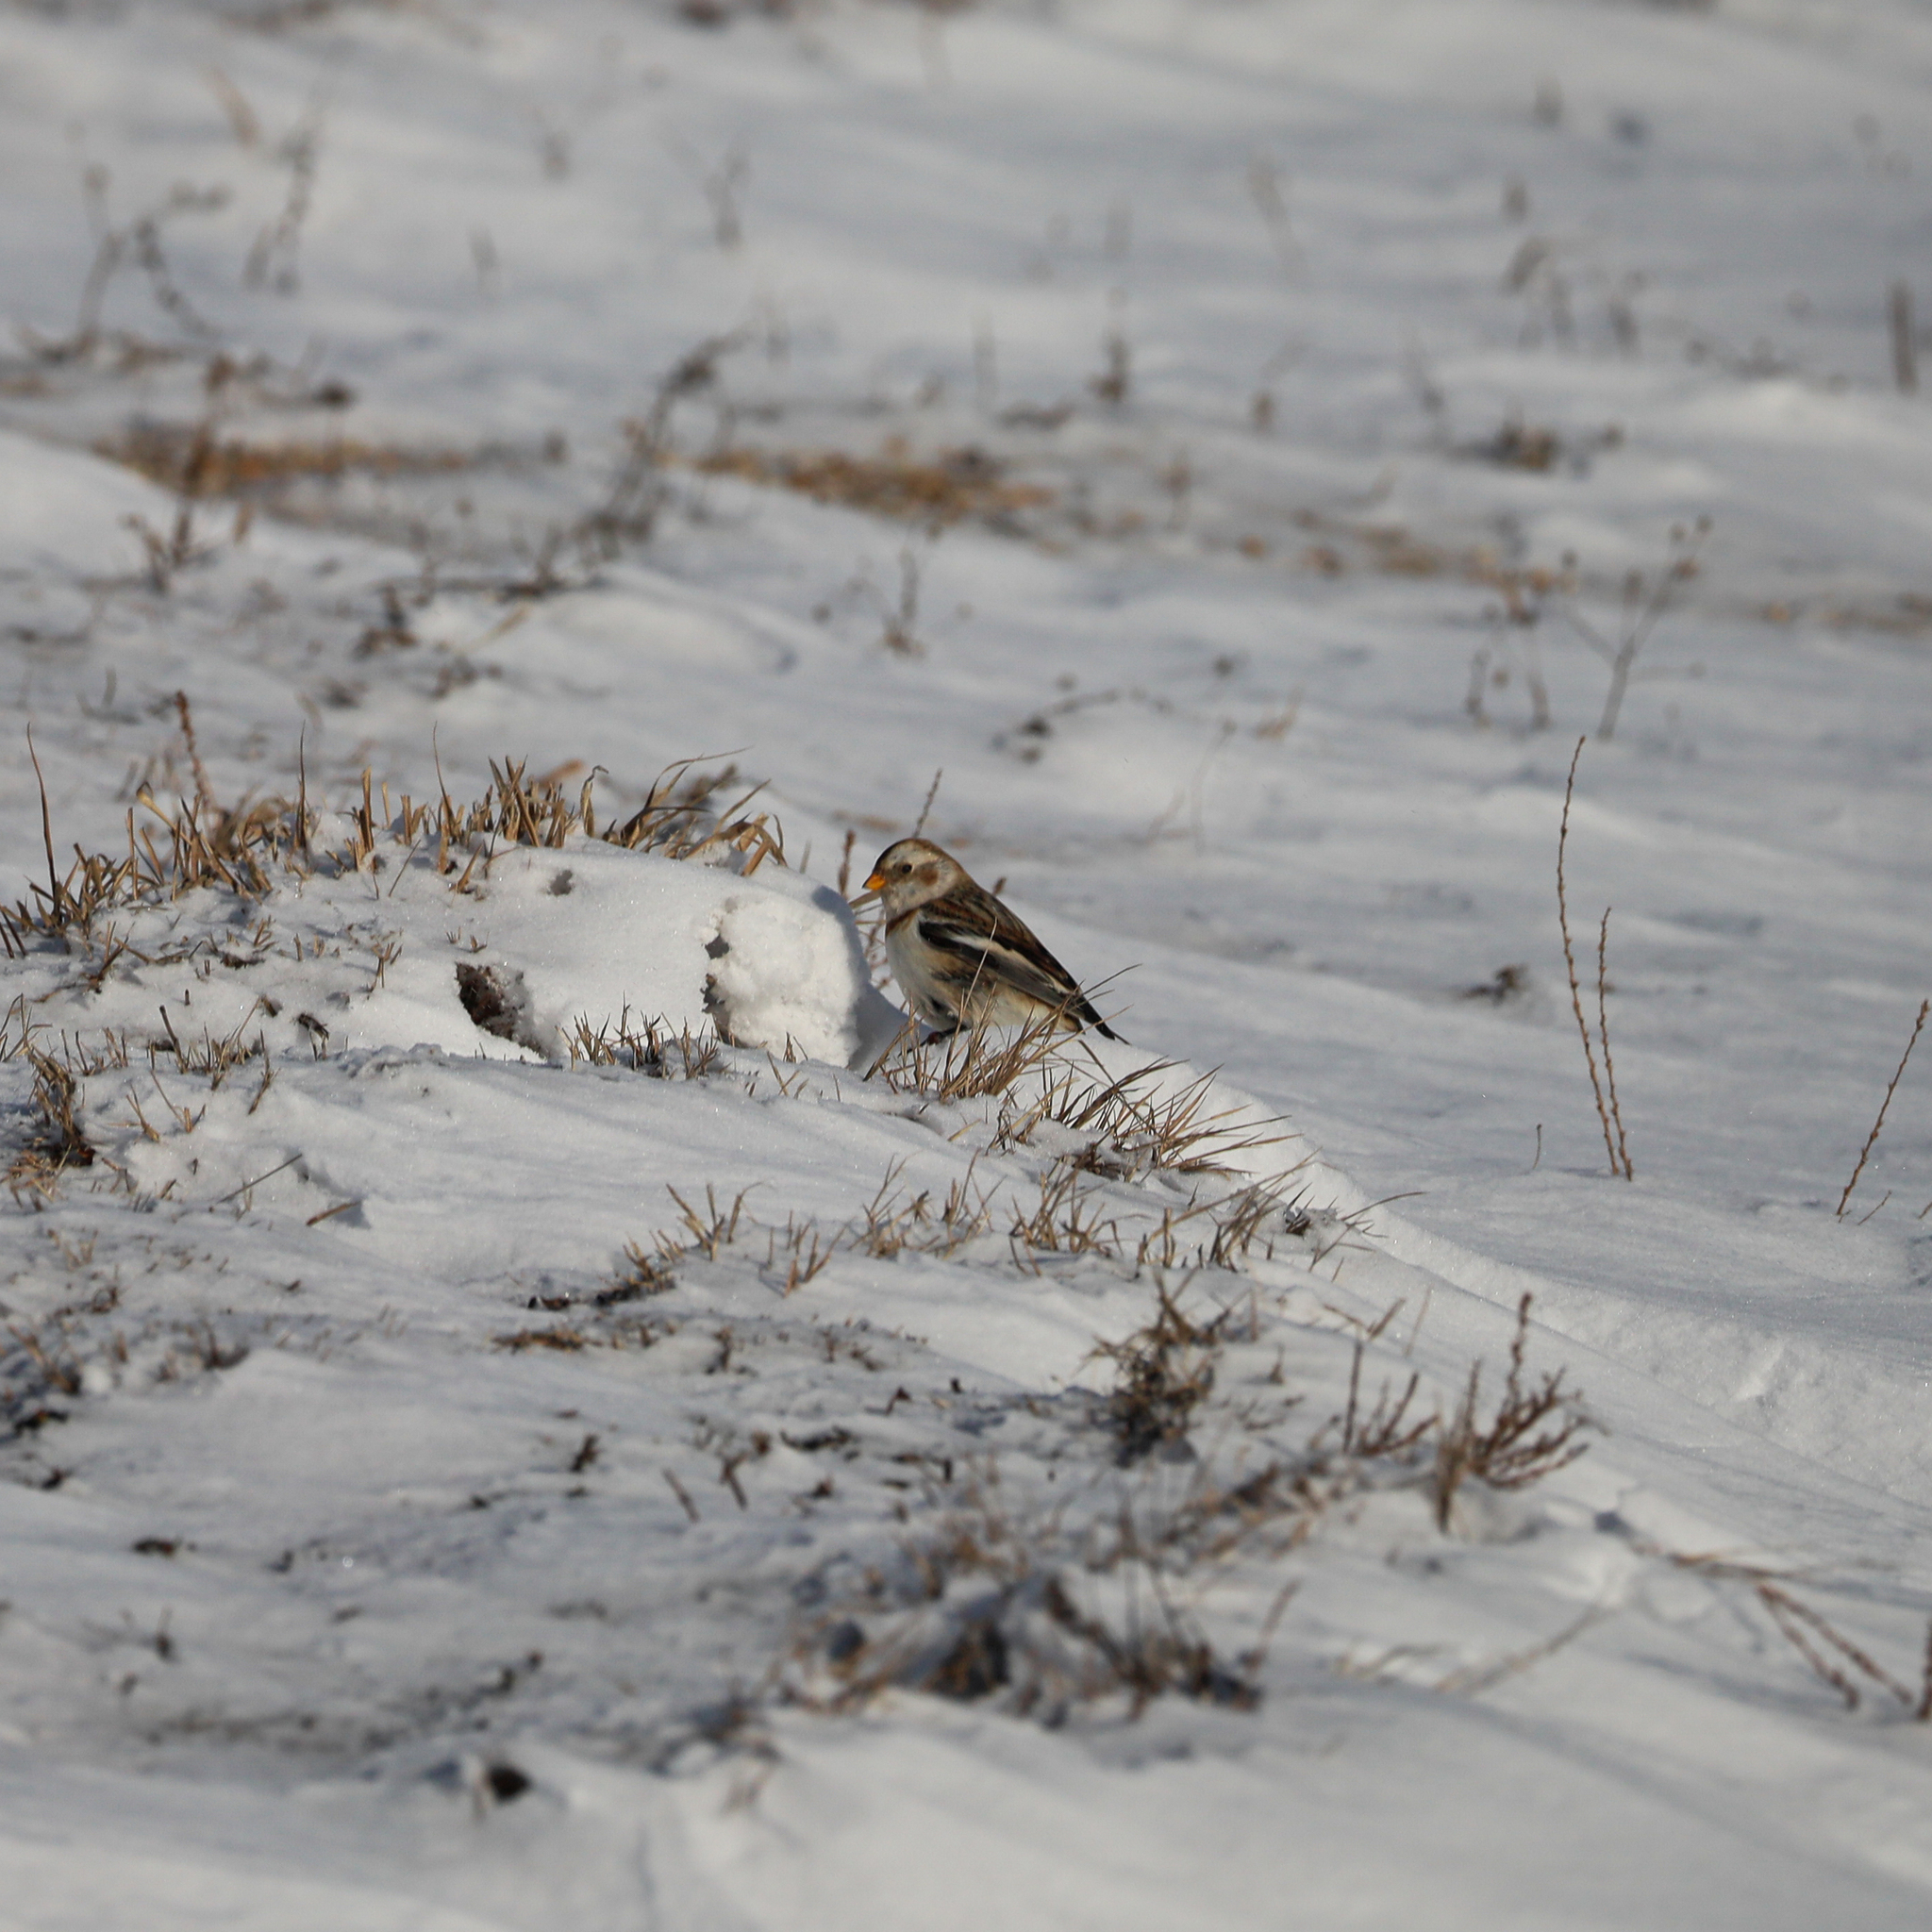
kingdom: Animalia
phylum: Chordata
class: Aves
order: Passeriformes
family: Calcariidae
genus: Plectrophenax
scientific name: Plectrophenax nivalis
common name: Snow bunting
